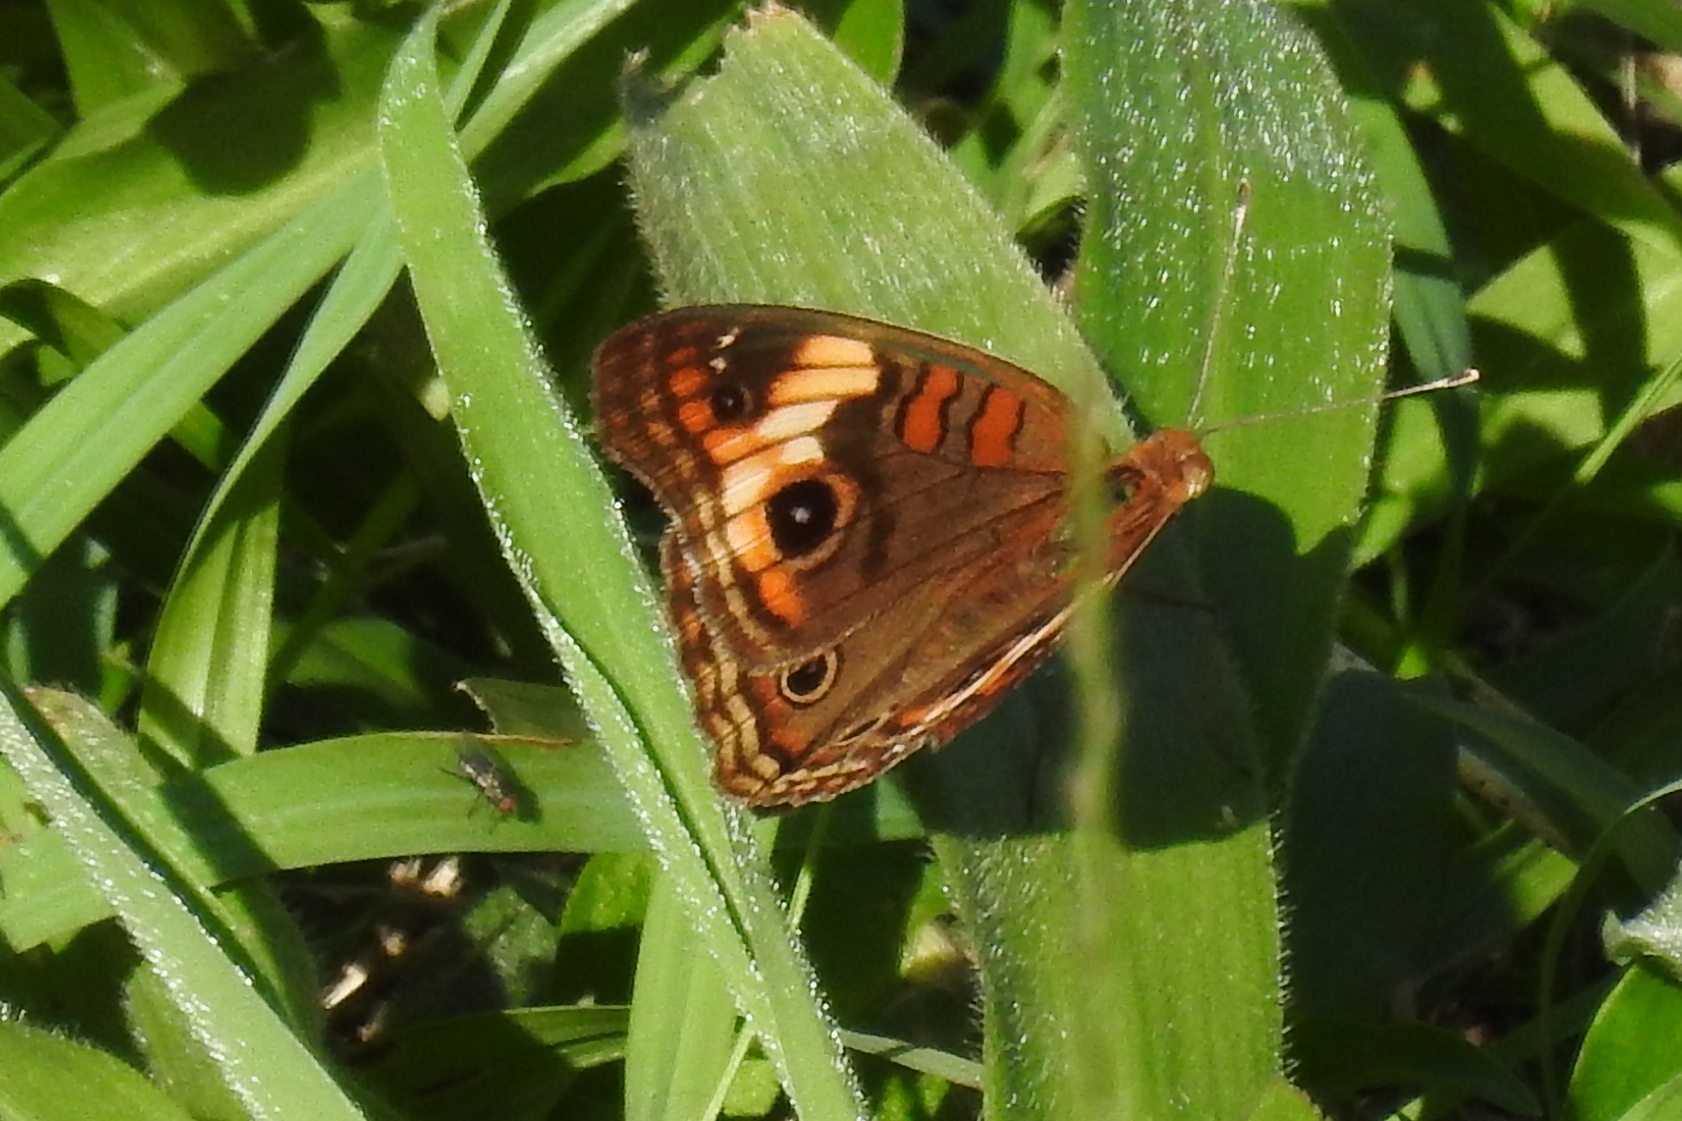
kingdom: Animalia
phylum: Arthropoda
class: Insecta
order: Lepidoptera
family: Nymphalidae
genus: Junonia
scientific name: Junonia neildi
